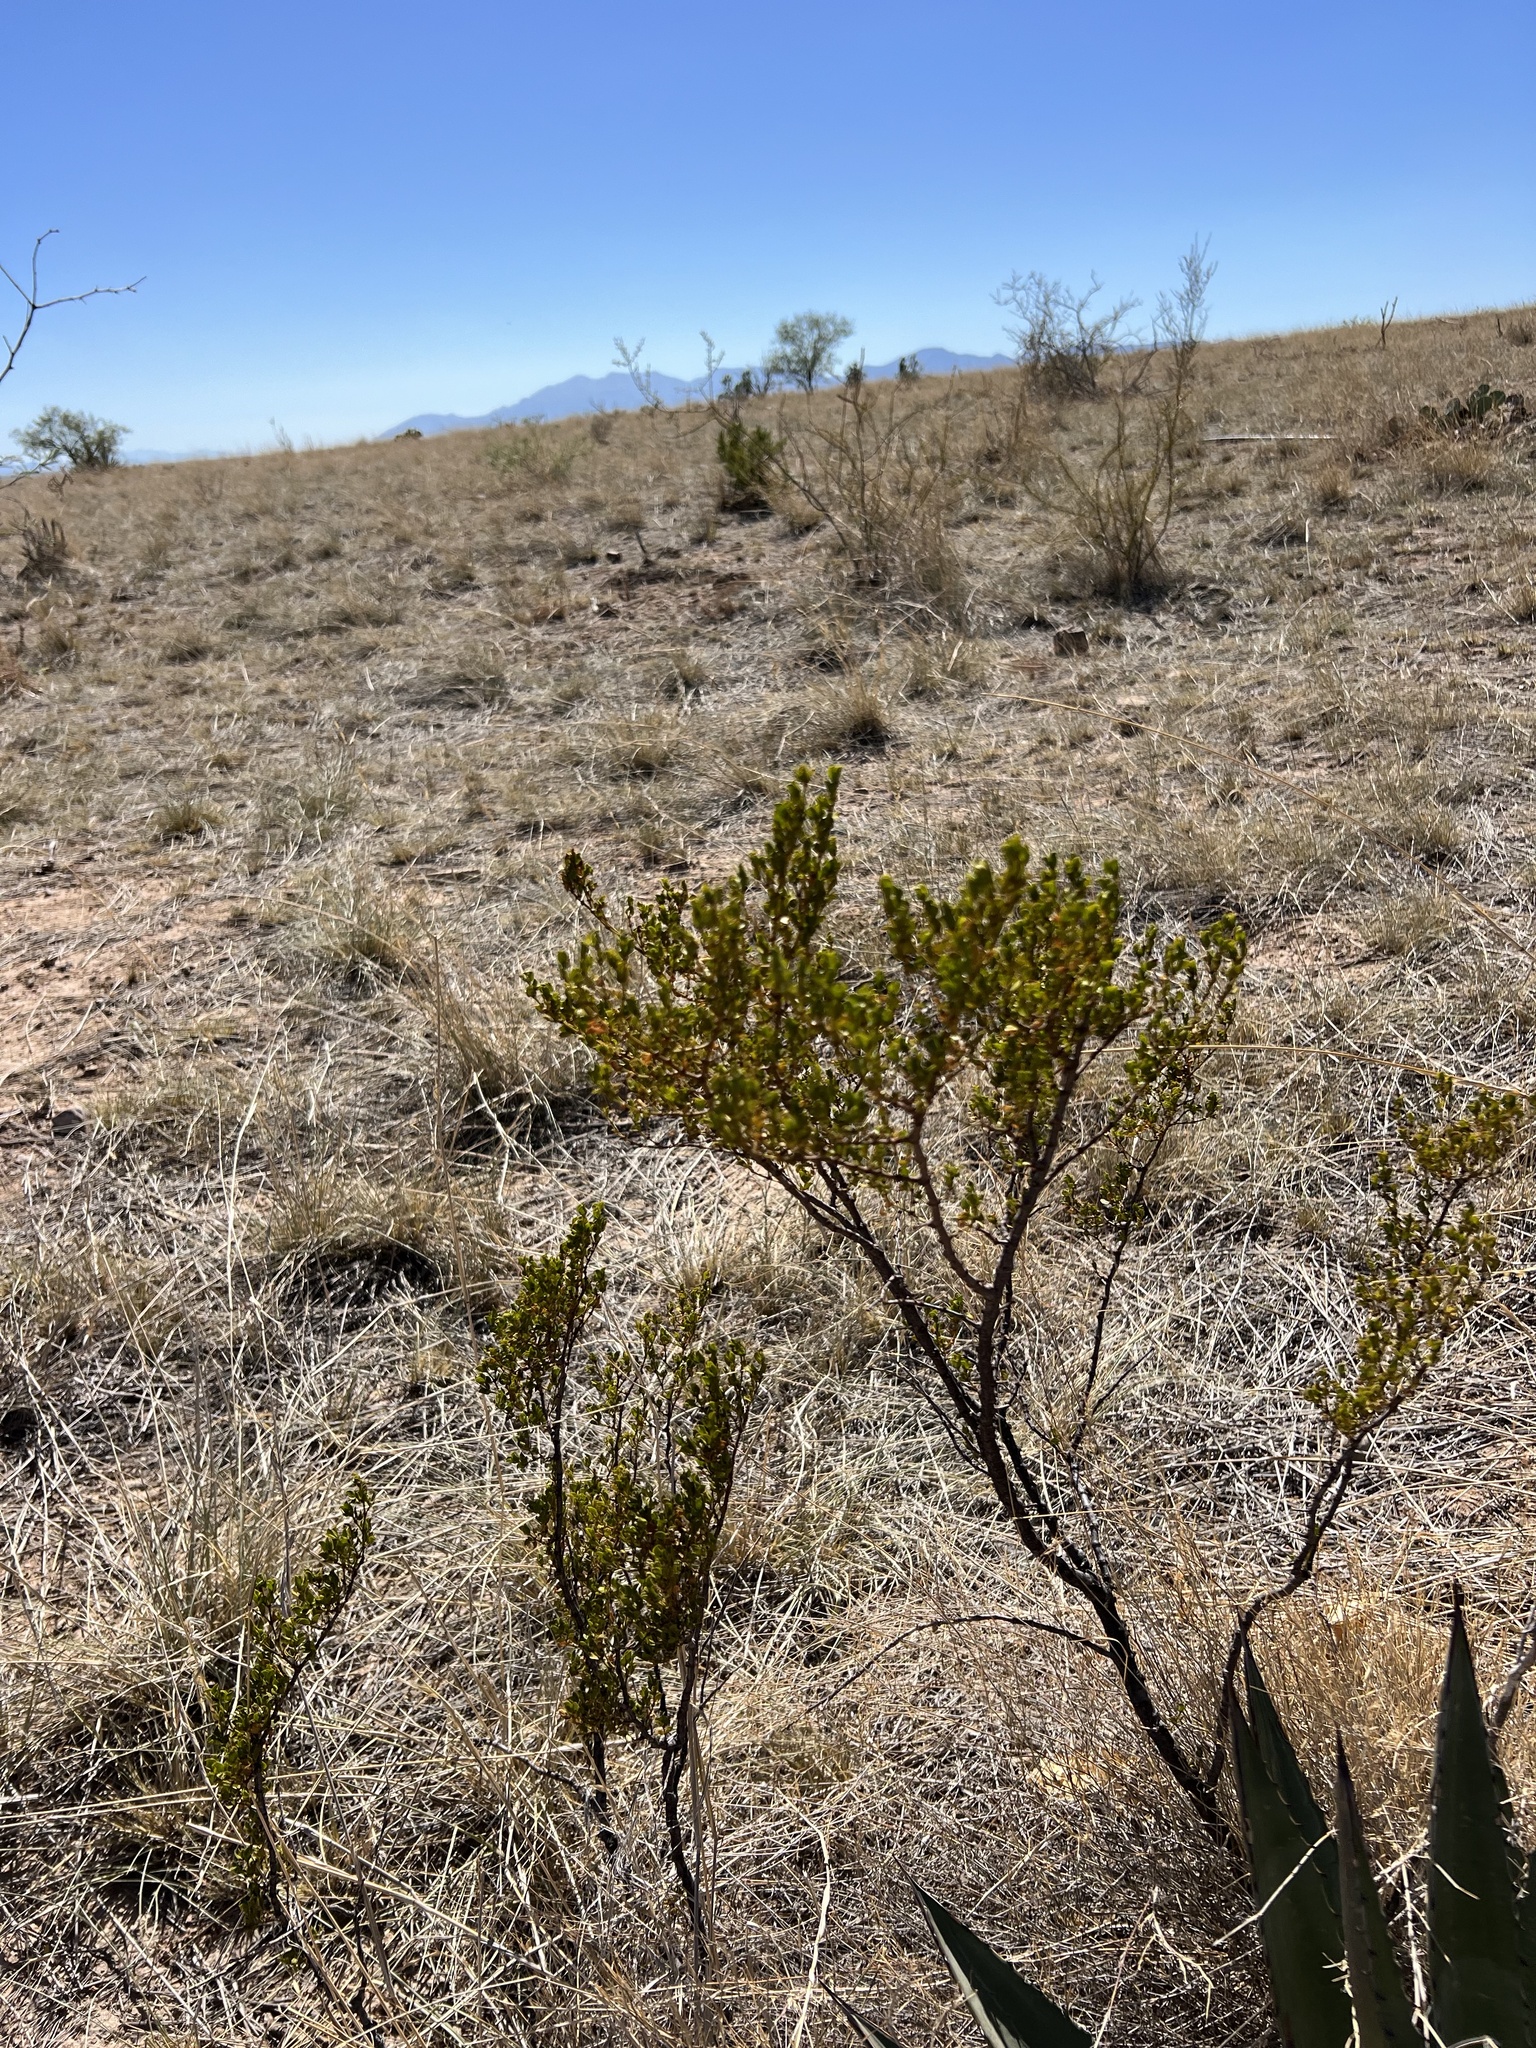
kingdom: Plantae
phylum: Tracheophyta
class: Magnoliopsida
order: Zygophyllales
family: Zygophyllaceae
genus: Larrea
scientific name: Larrea tridentata
